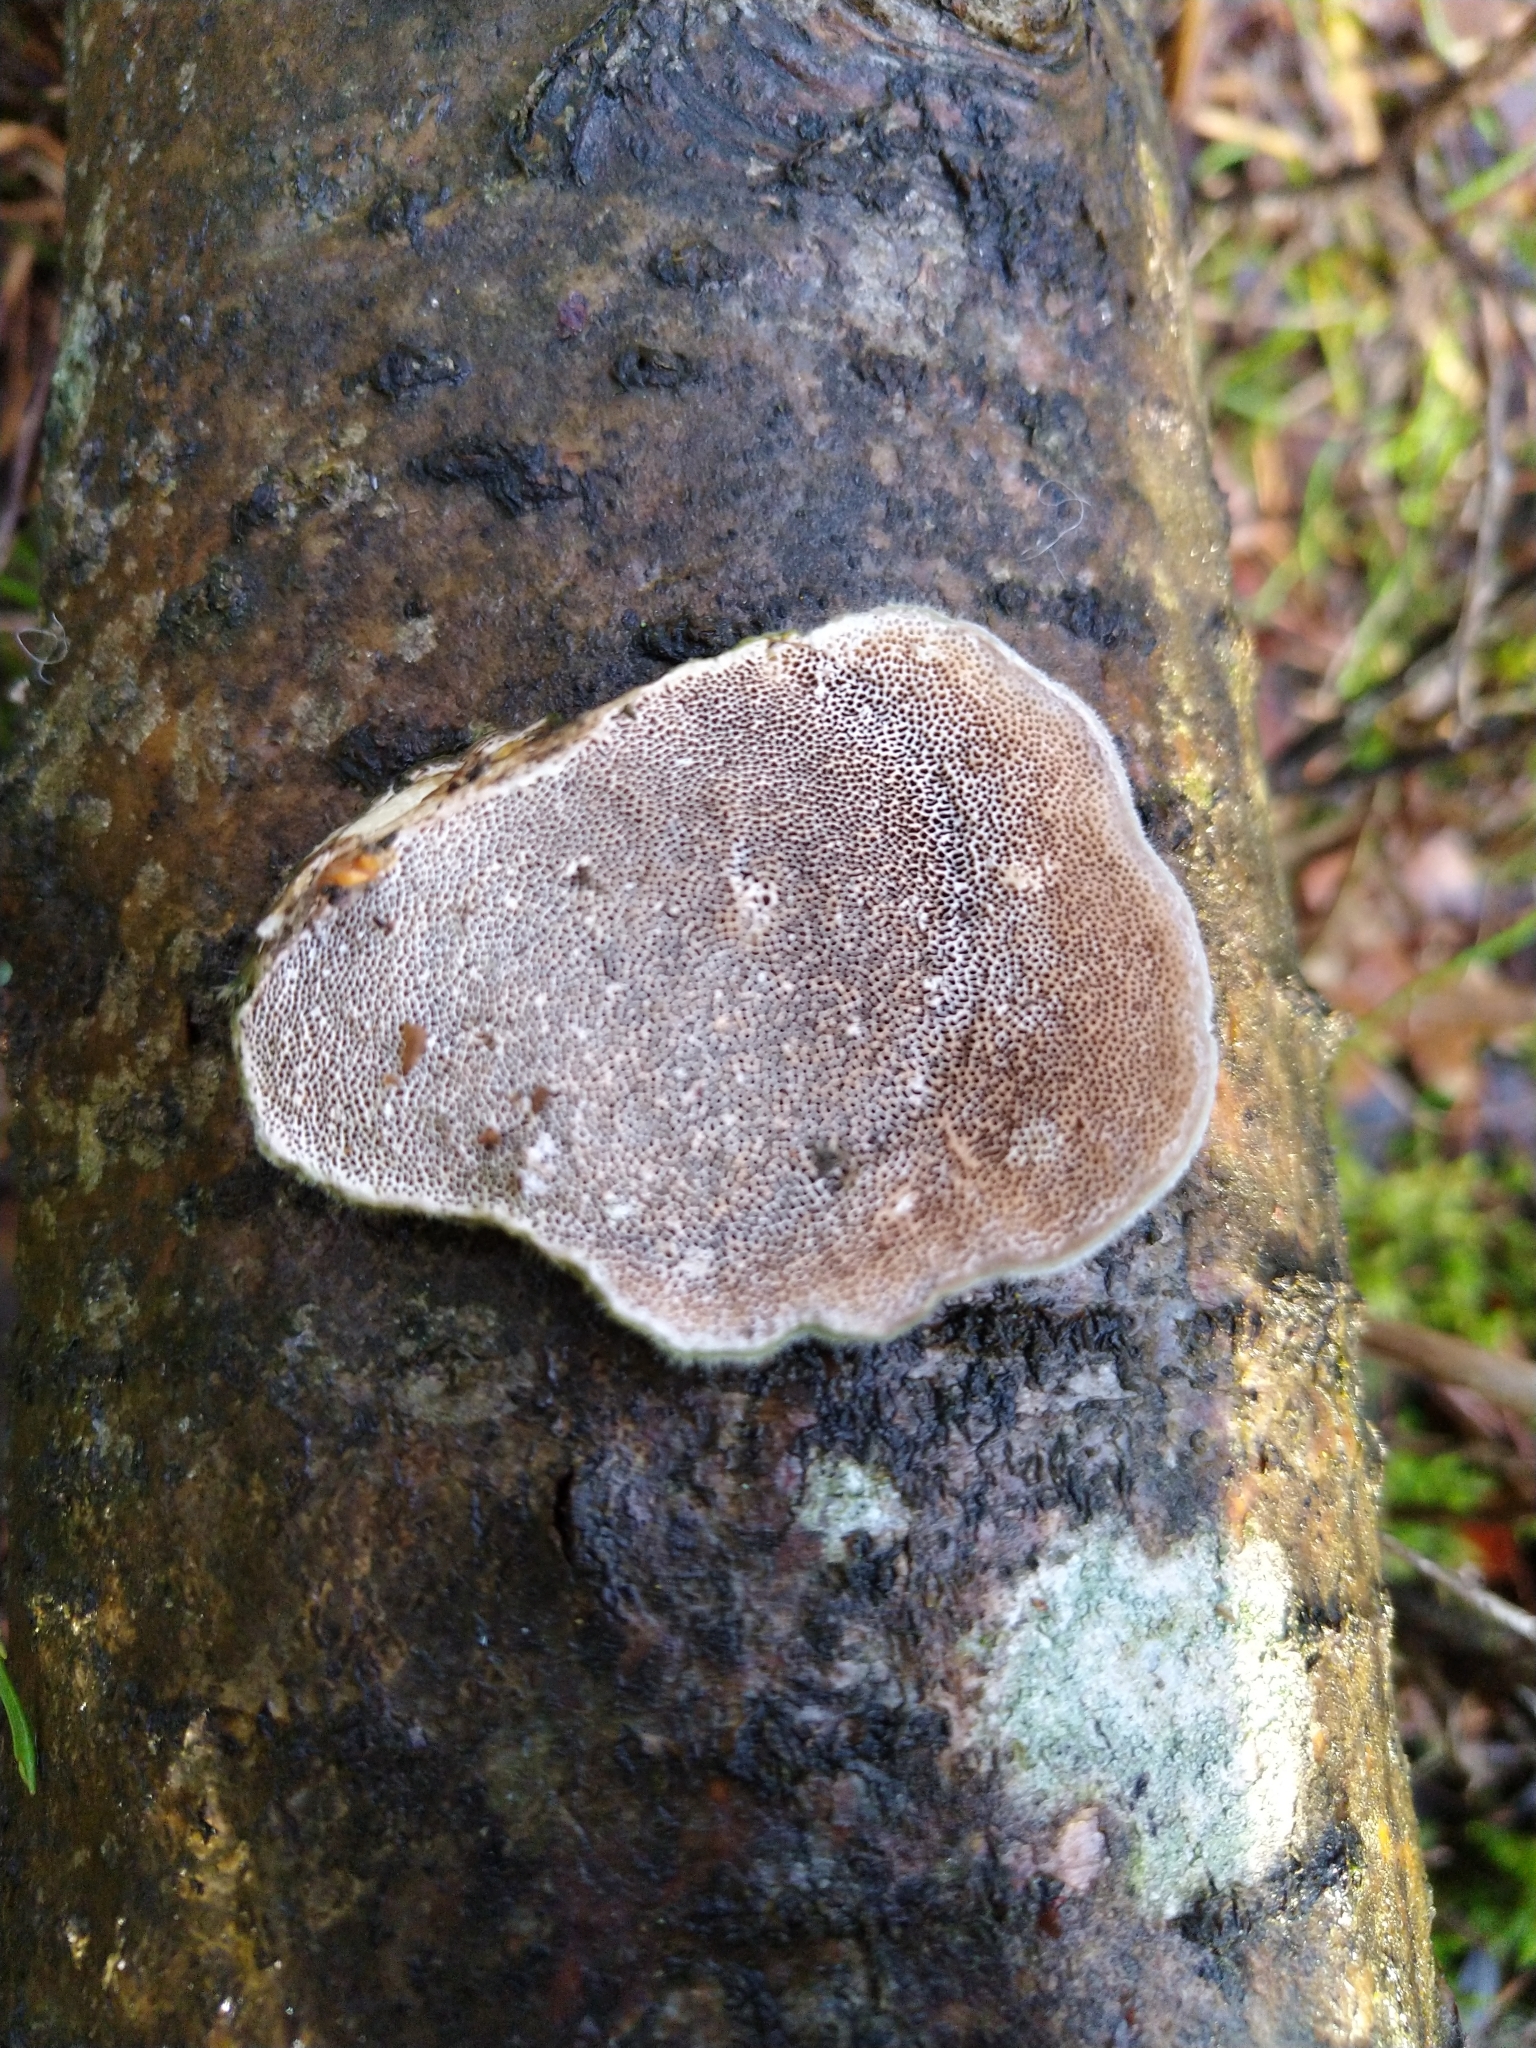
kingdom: Fungi
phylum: Basidiomycota
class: Agaricomycetes
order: Polyporales
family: Polyporaceae
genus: Trametes
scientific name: Trametes hirsuta
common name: Hairy bracket
